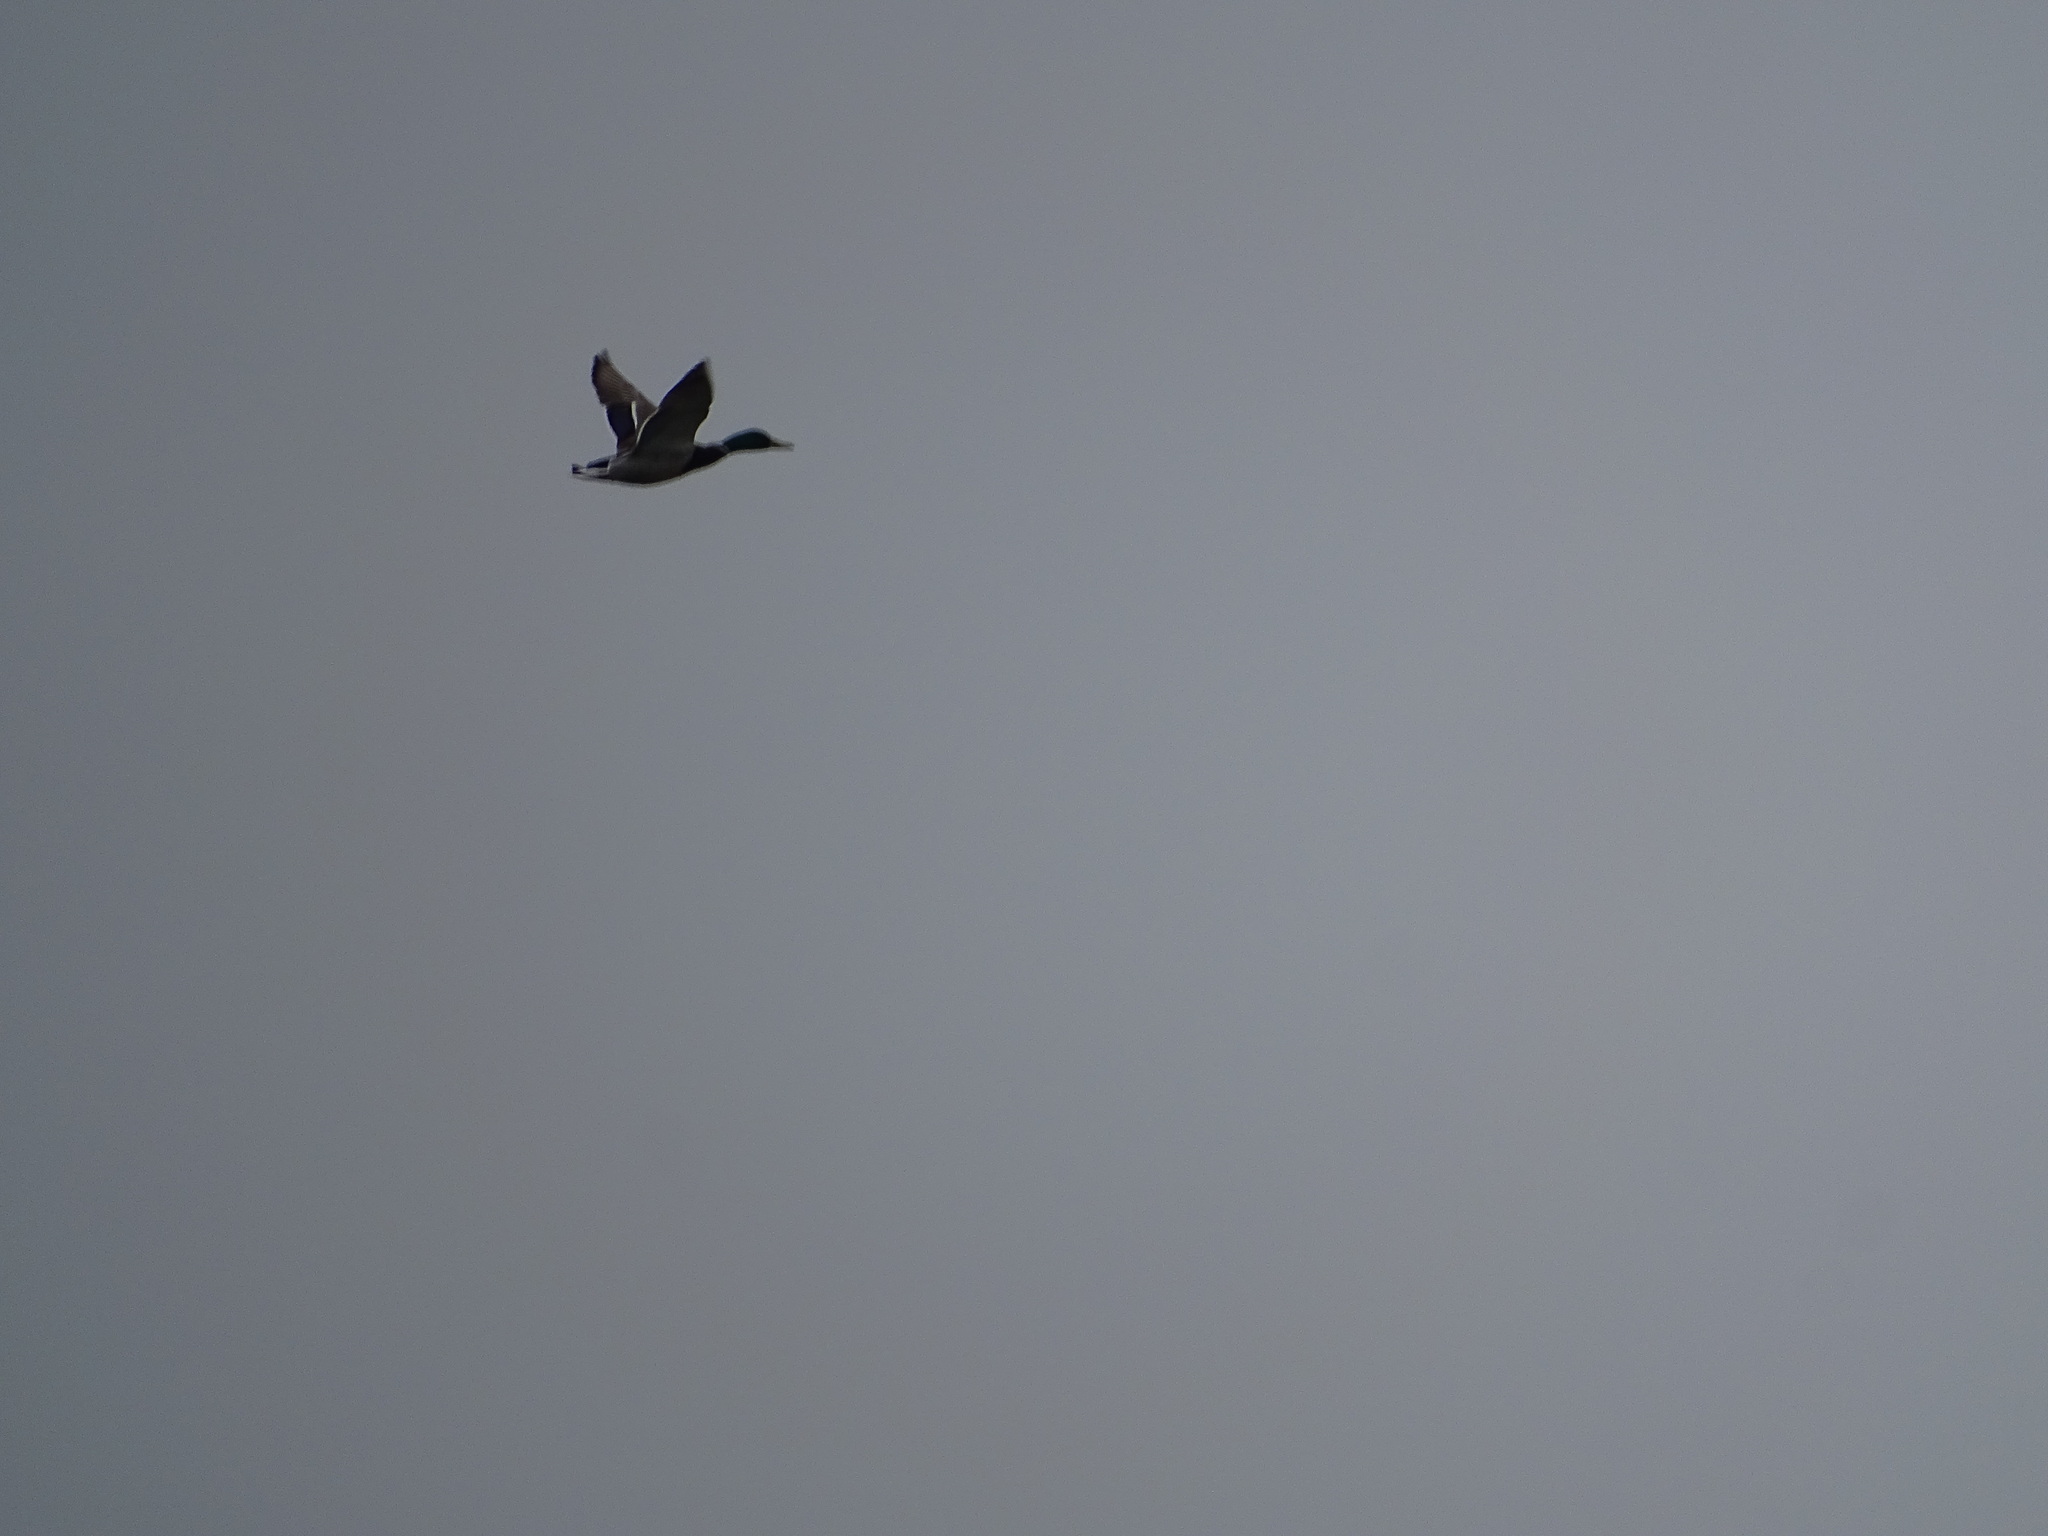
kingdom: Animalia
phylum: Chordata
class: Aves
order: Anseriformes
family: Anatidae
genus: Anas
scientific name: Anas platyrhynchos
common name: Mallard
